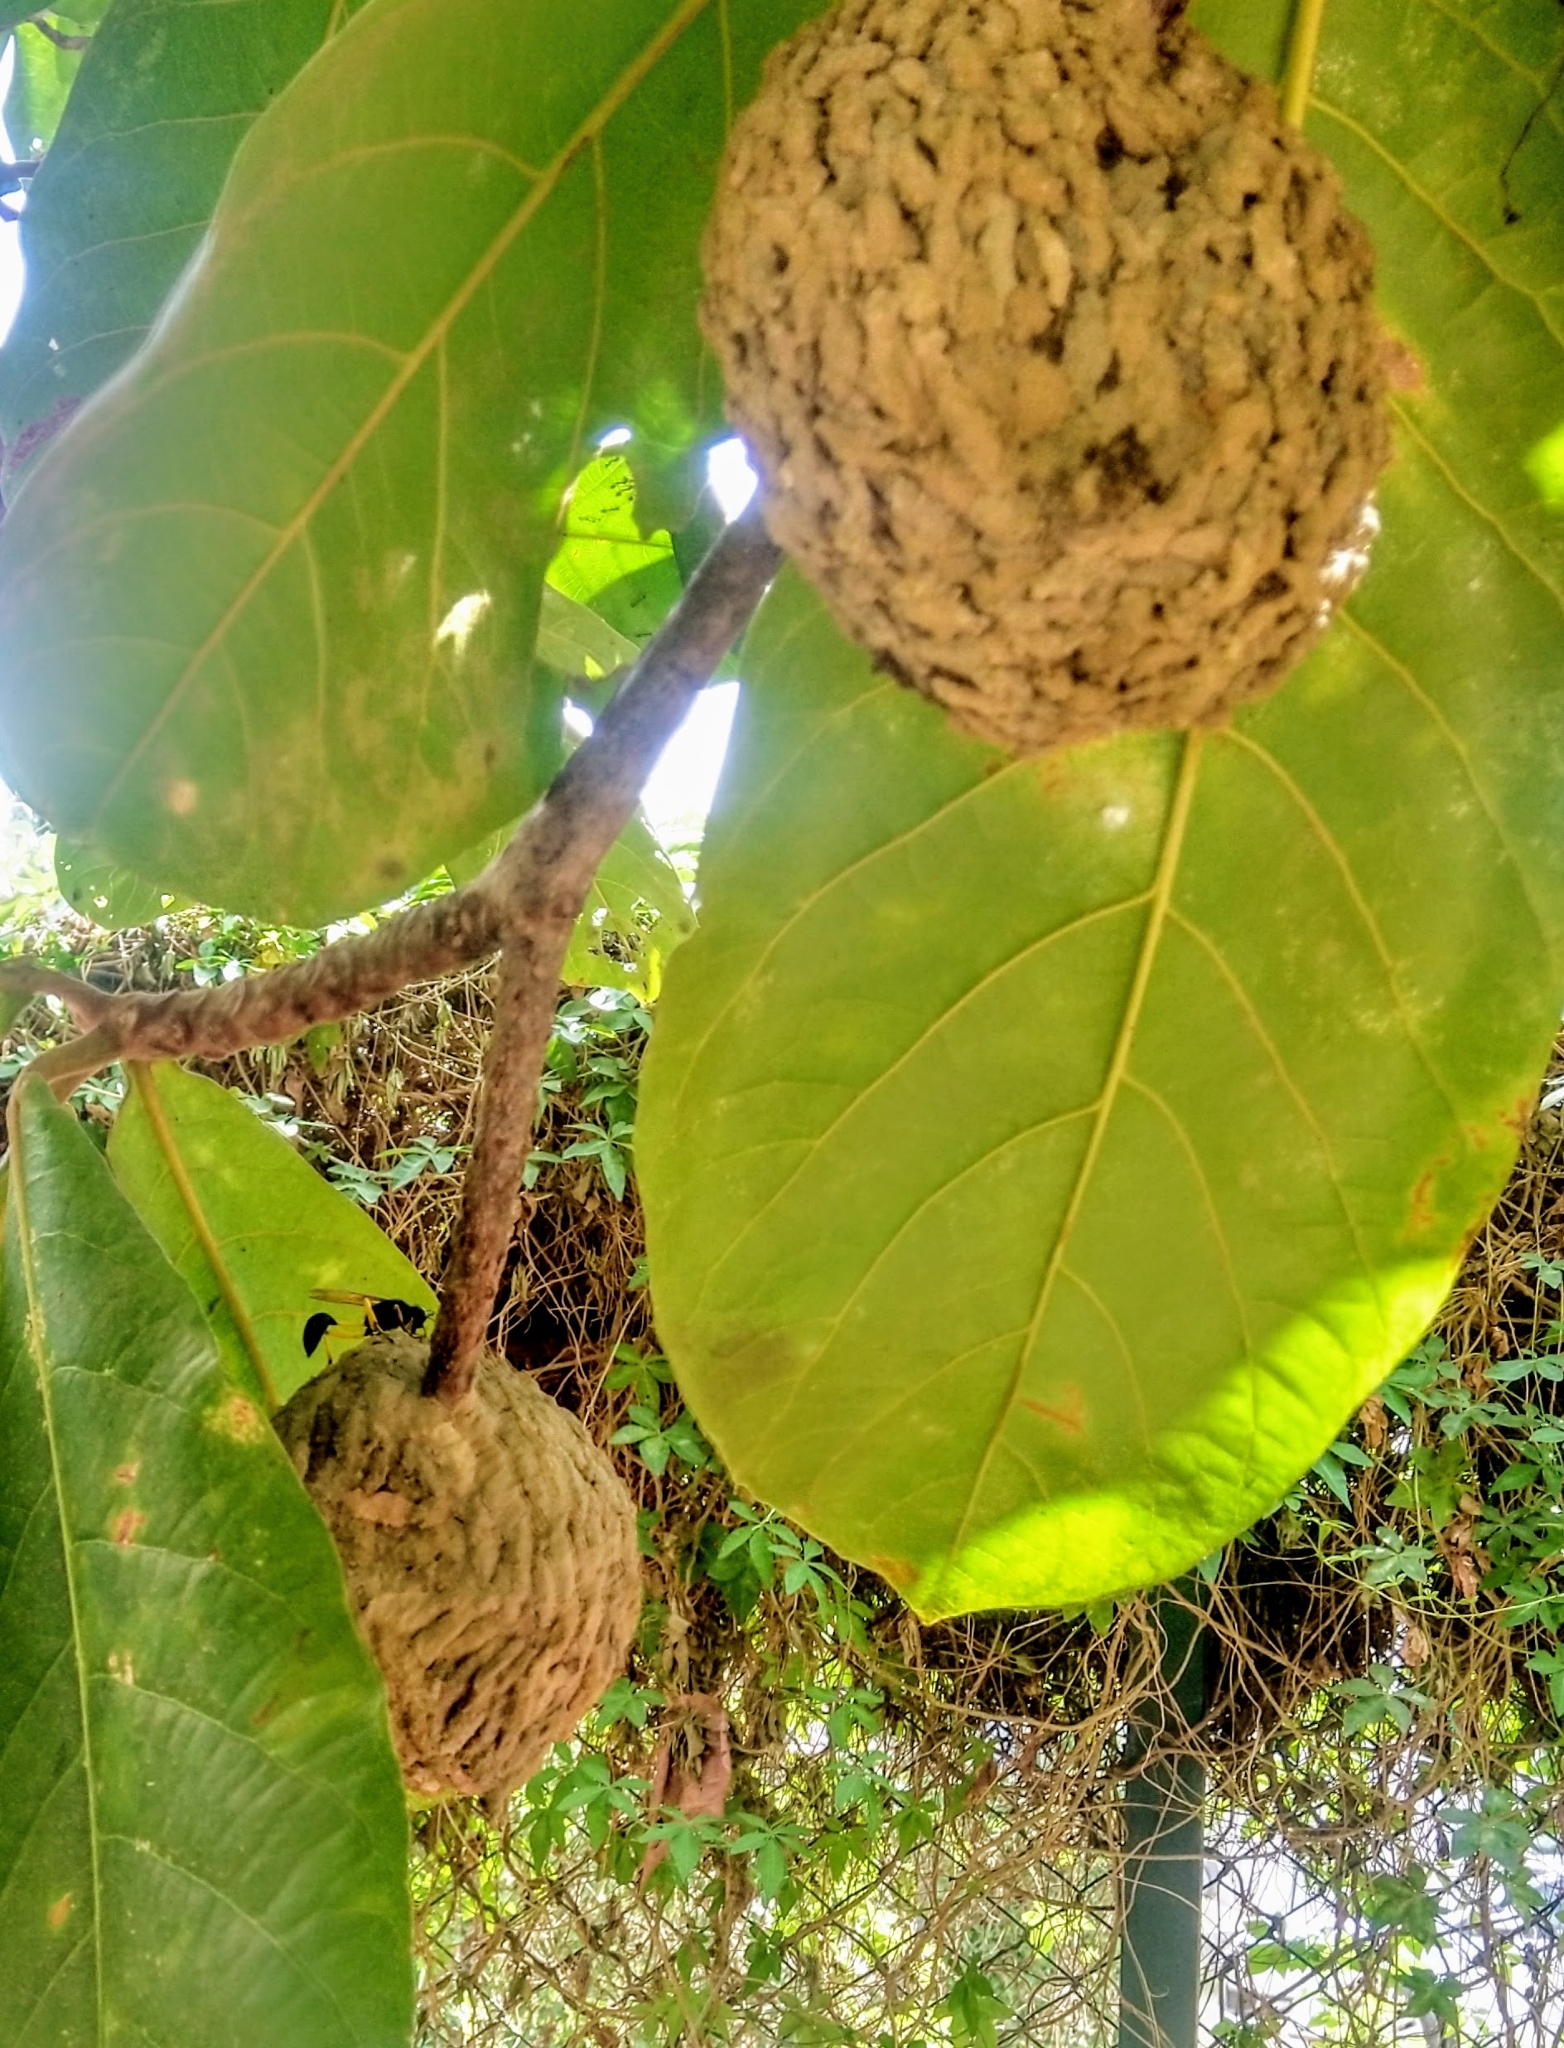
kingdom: Animalia
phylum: Arthropoda
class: Insecta
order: Hymenoptera
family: Sphecidae
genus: Sceliphron
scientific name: Sceliphron coromandelicum
